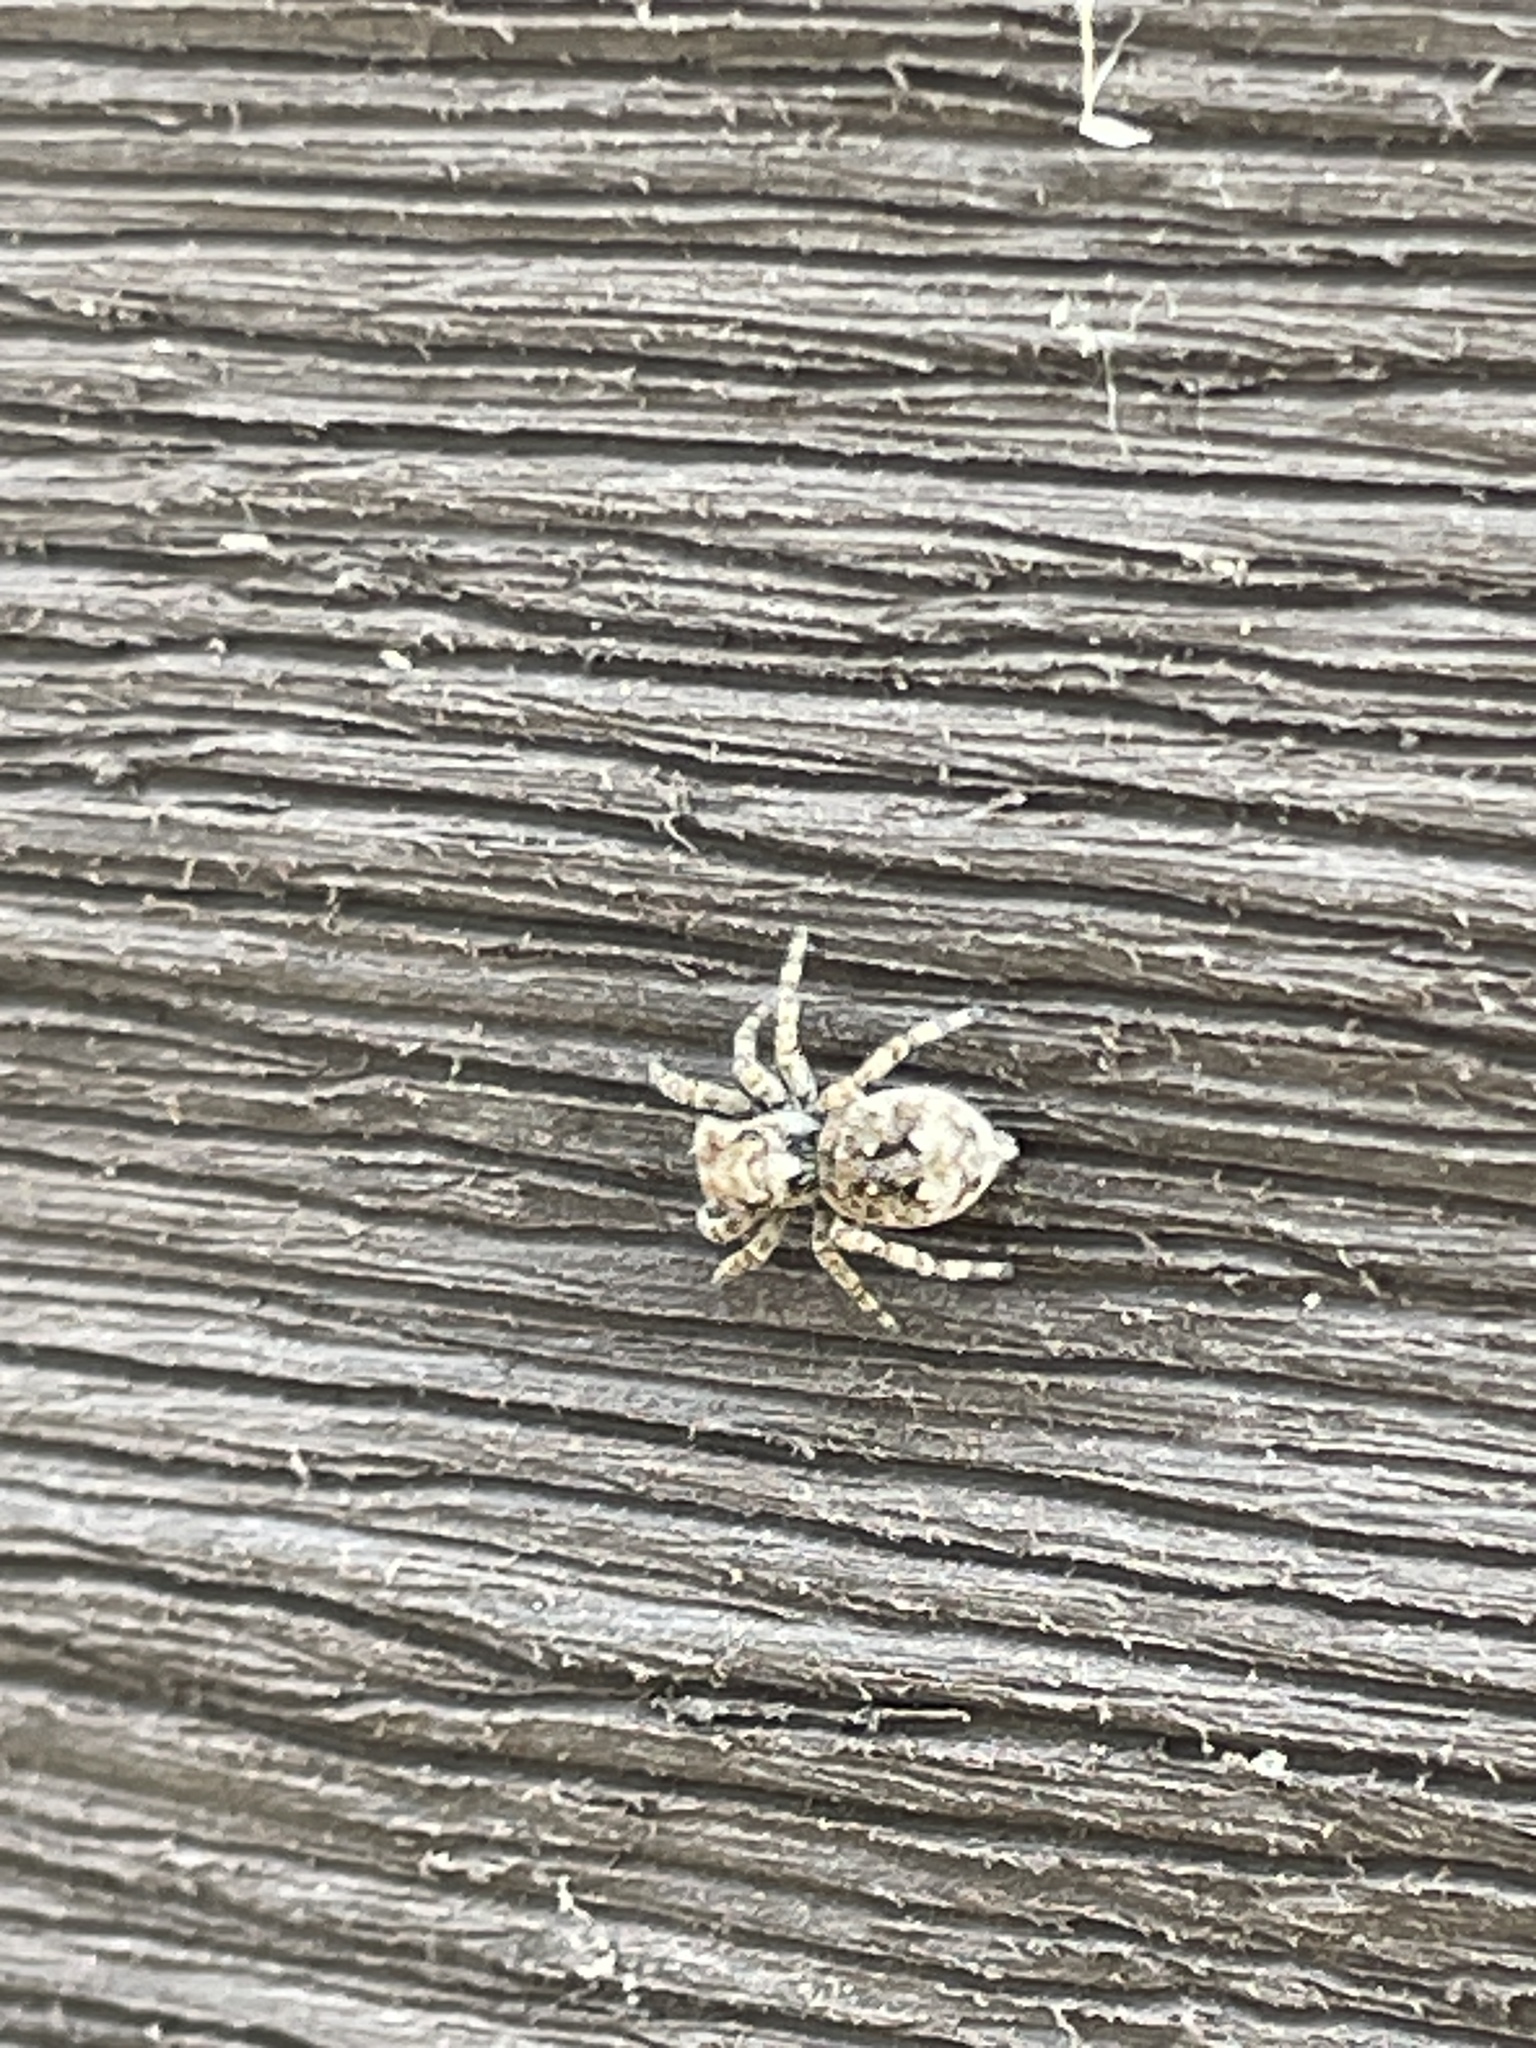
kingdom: Animalia
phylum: Arthropoda
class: Arachnida
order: Araneae
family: Salticidae
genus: Attulus
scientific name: Attulus fasciger
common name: Asiatic wall jumping spider
